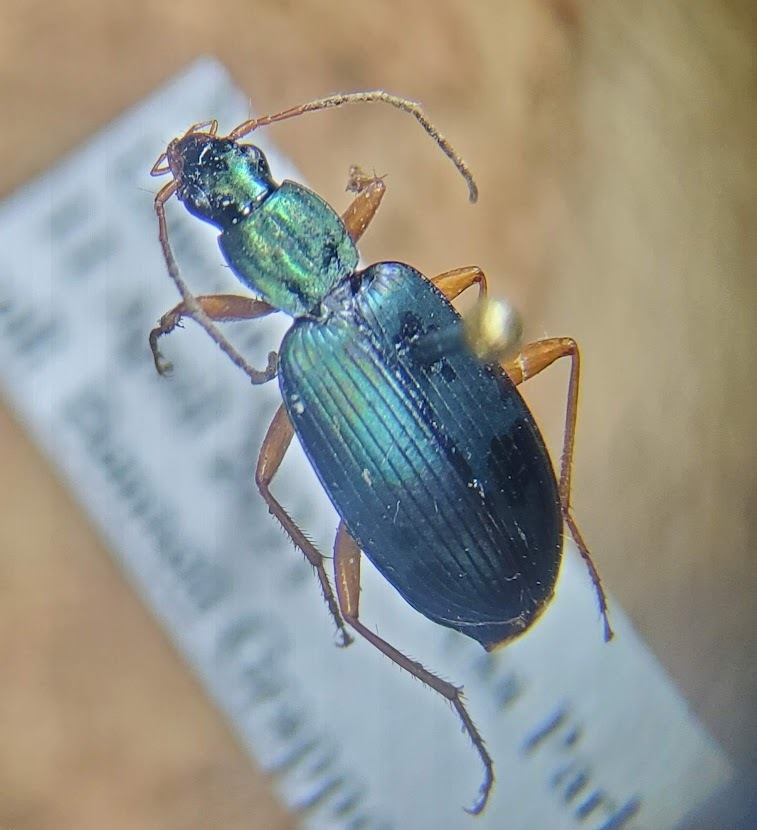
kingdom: Animalia
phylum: Arthropoda
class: Insecta
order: Coleoptera
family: Carabidae
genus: Agonum
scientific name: Agonum extensicolle
